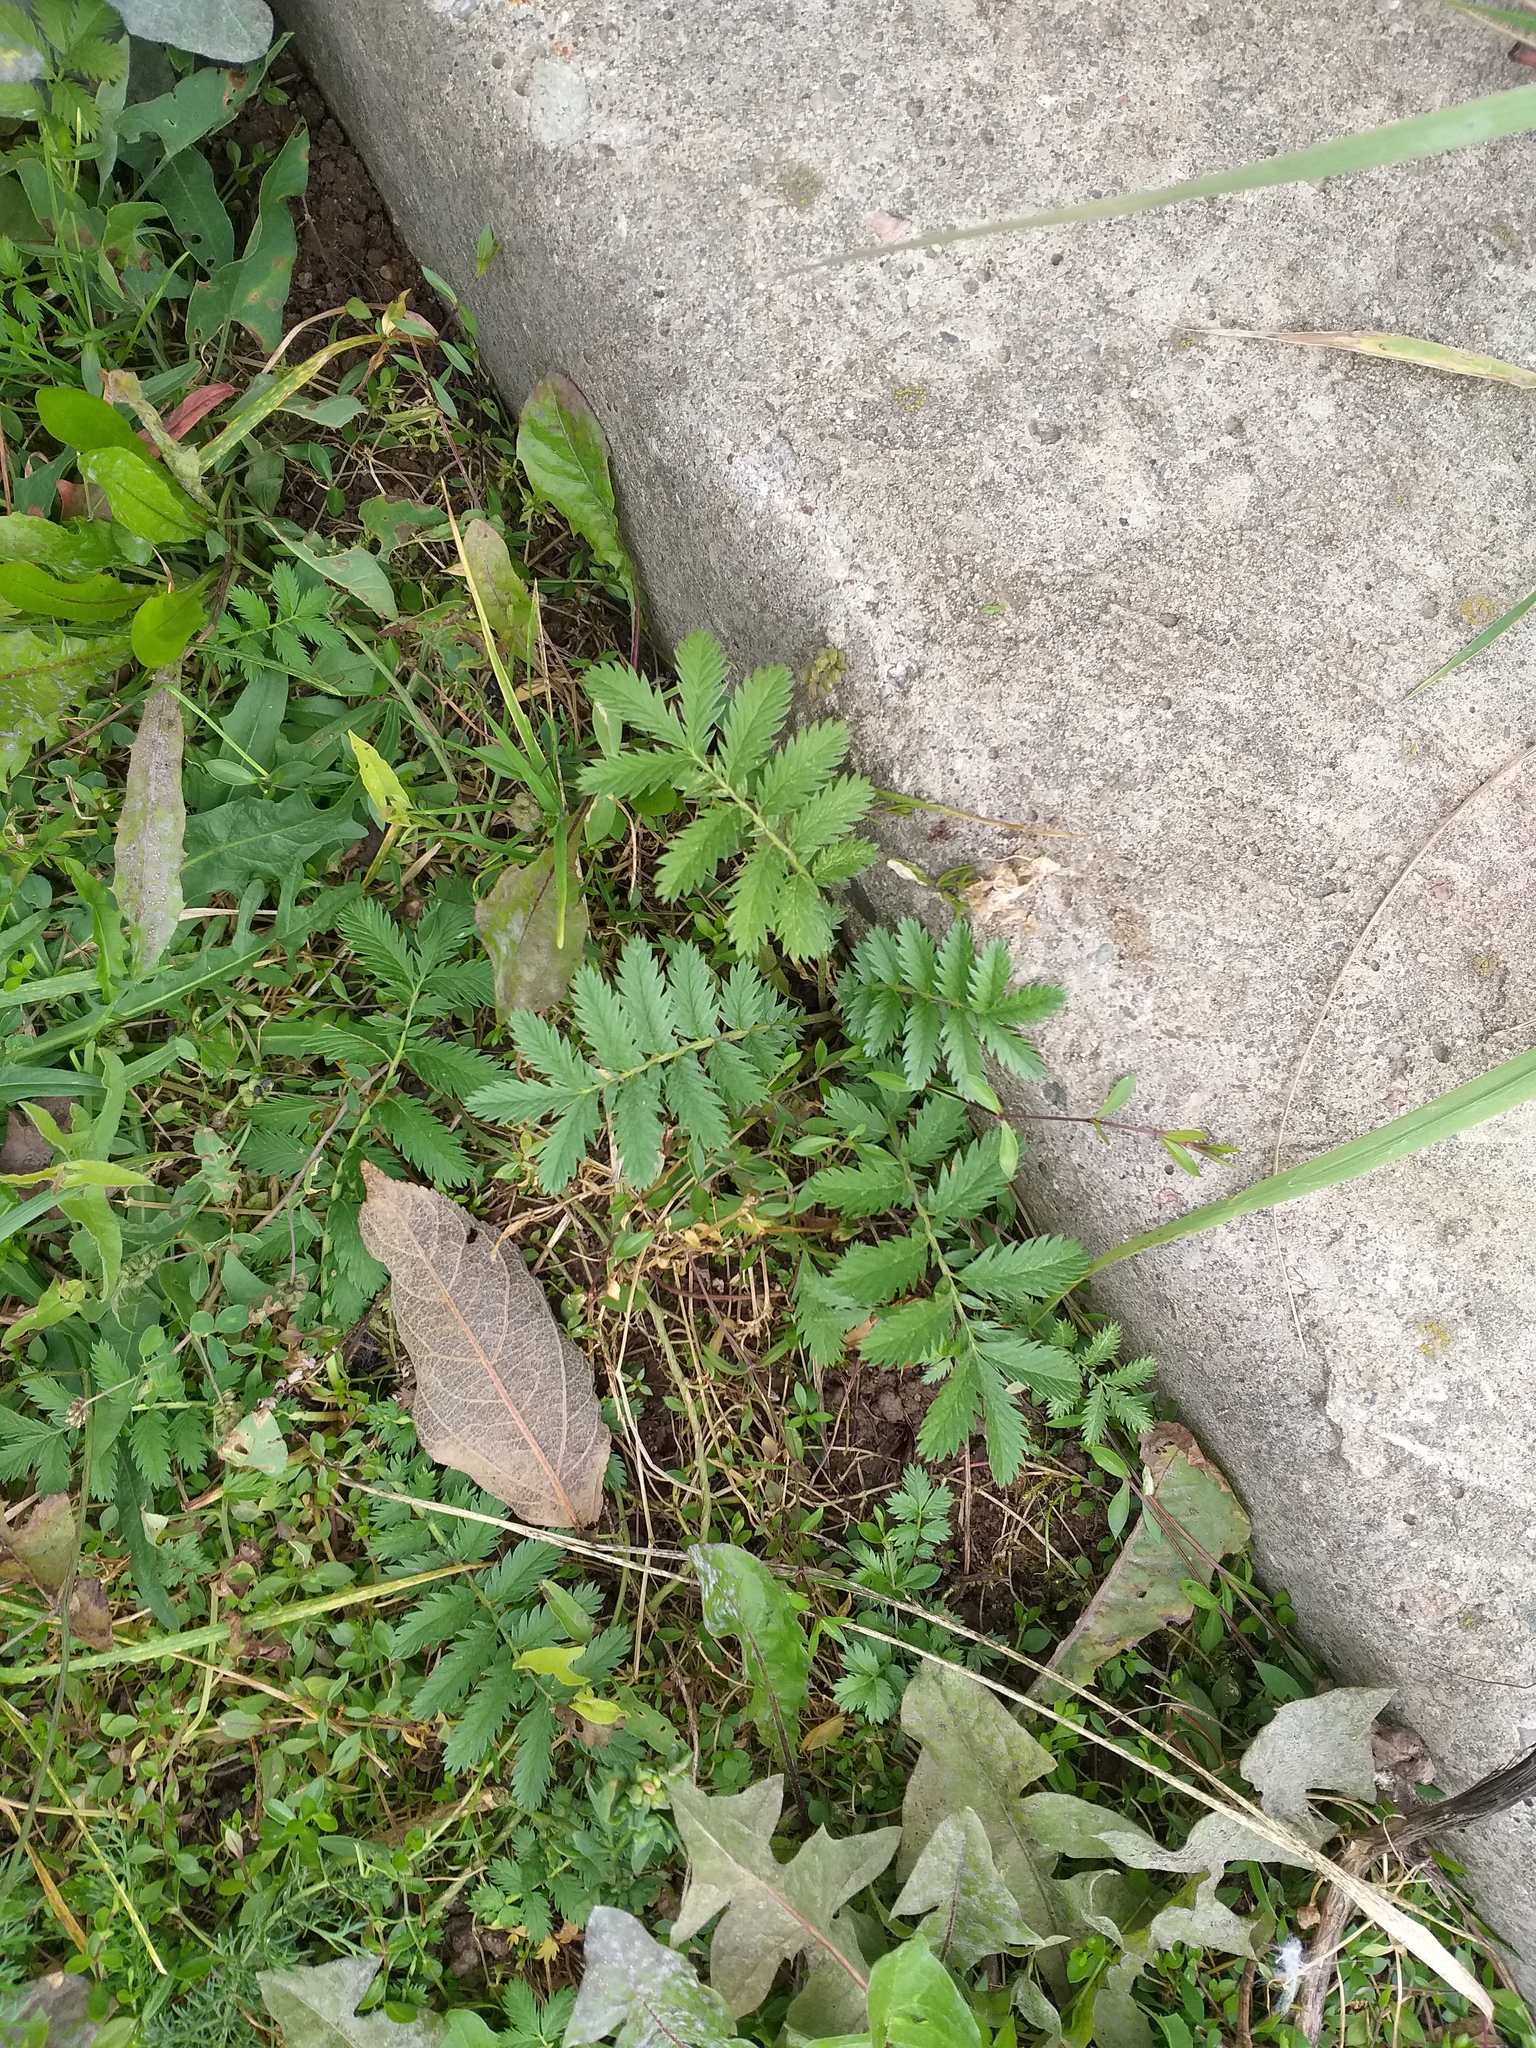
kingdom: Plantae
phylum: Tracheophyta
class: Magnoliopsida
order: Rosales
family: Rosaceae
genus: Argentina
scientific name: Argentina anserina
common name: Common silverweed
